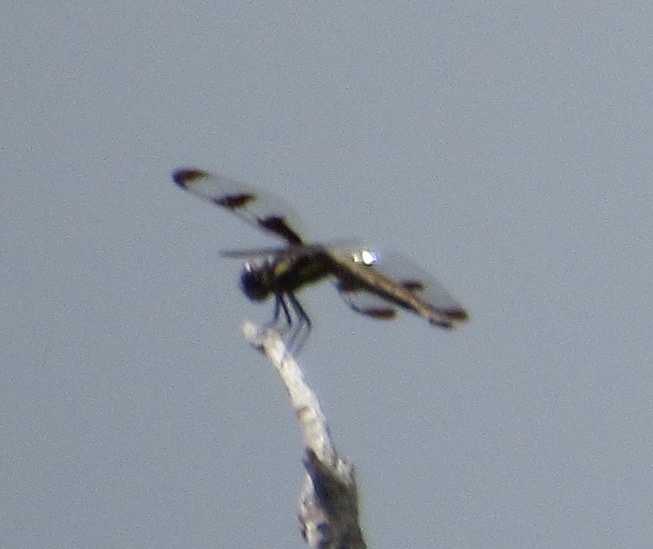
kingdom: Animalia
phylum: Arthropoda
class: Insecta
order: Odonata
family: Libellulidae
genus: Libellula
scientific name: Libellula pulchella
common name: Twelve-spotted skimmer
